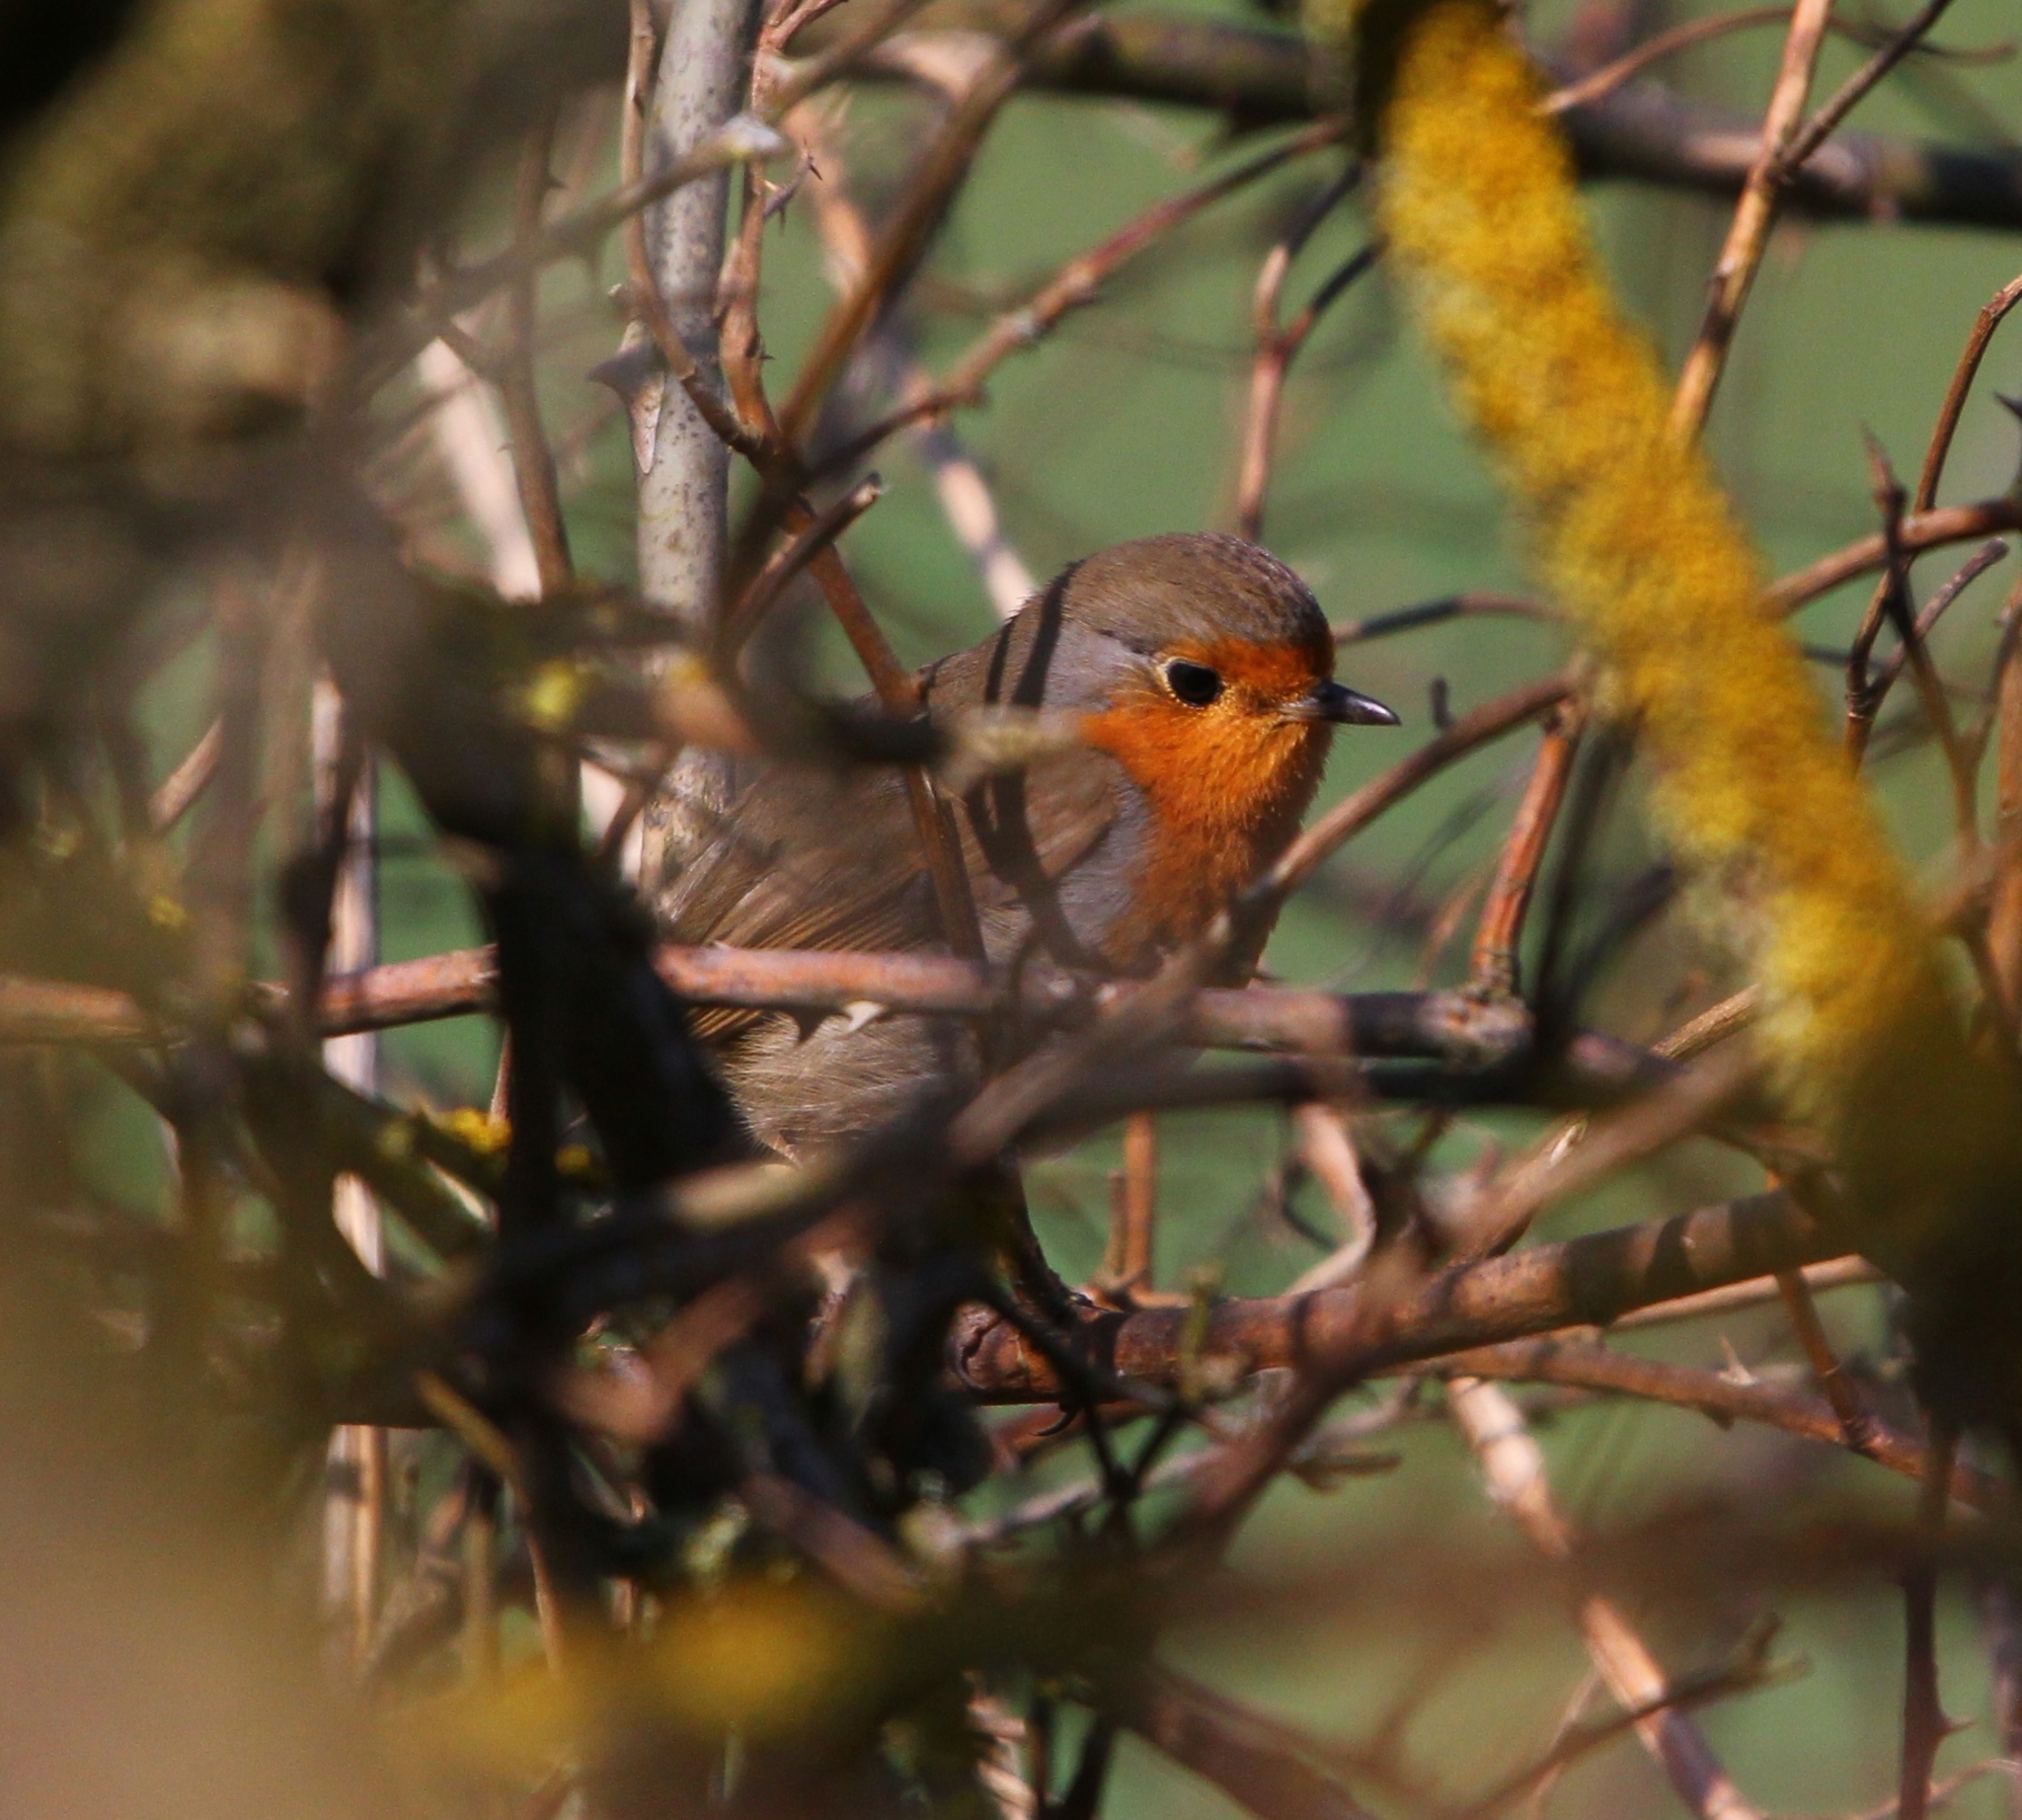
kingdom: Animalia
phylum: Chordata
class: Aves
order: Passeriformes
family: Muscicapidae
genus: Erithacus
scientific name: Erithacus rubecula
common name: European robin
